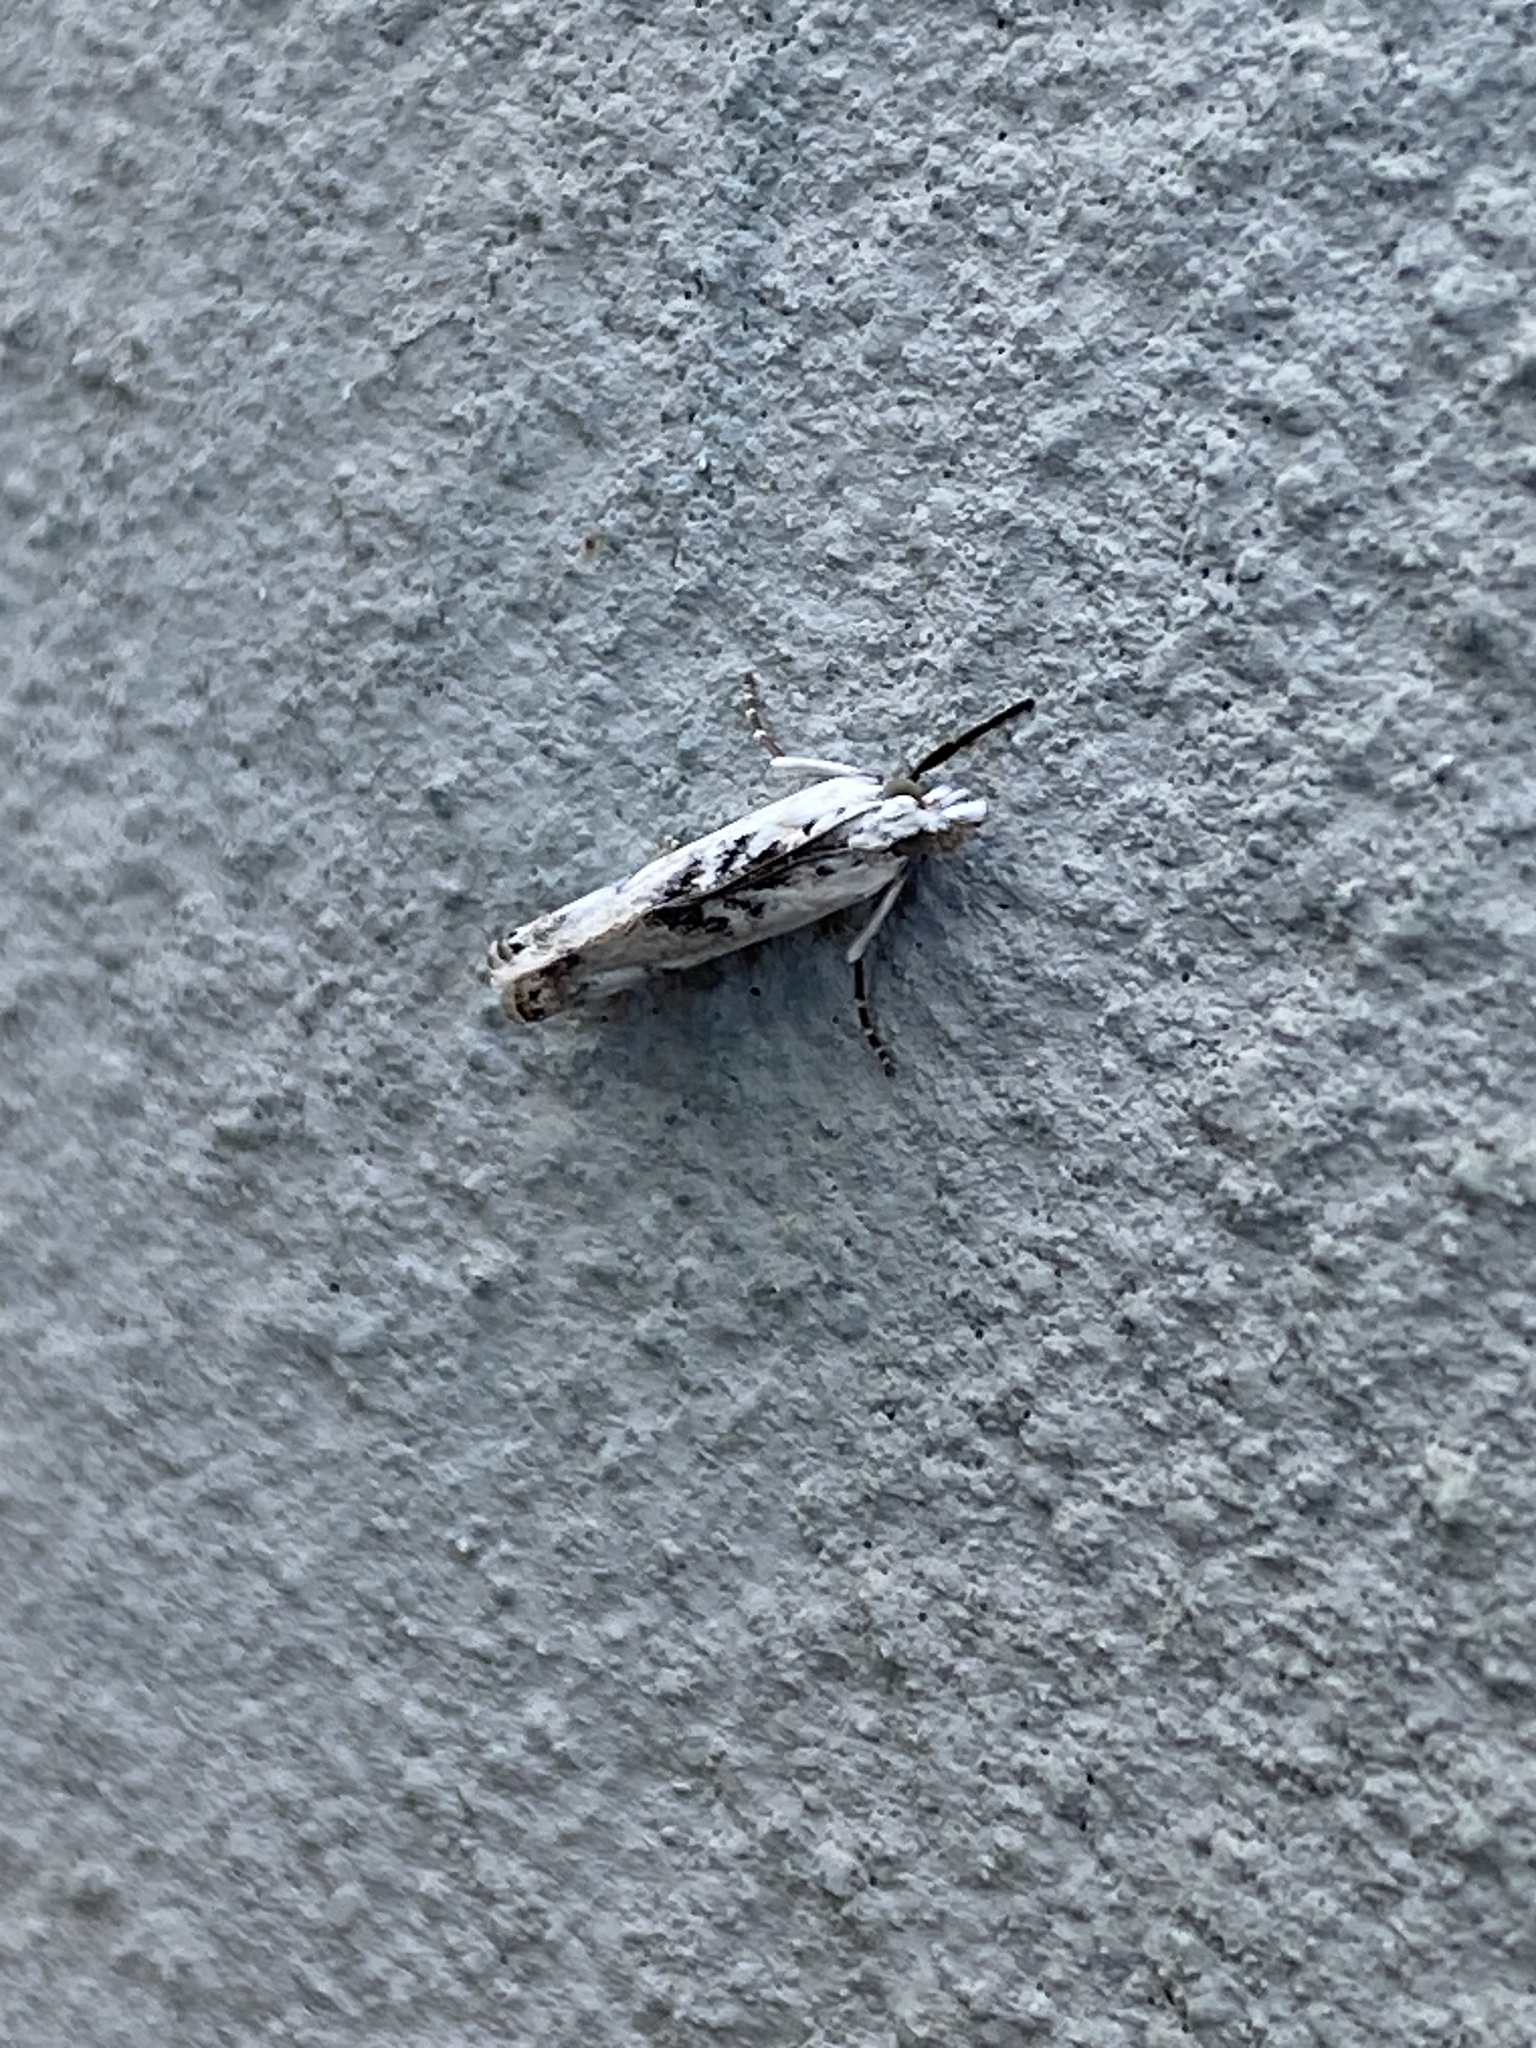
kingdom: Animalia
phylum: Arthropoda
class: Insecta
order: Lepidoptera
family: Crambidae
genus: Crambus
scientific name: Crambus sparsellus
